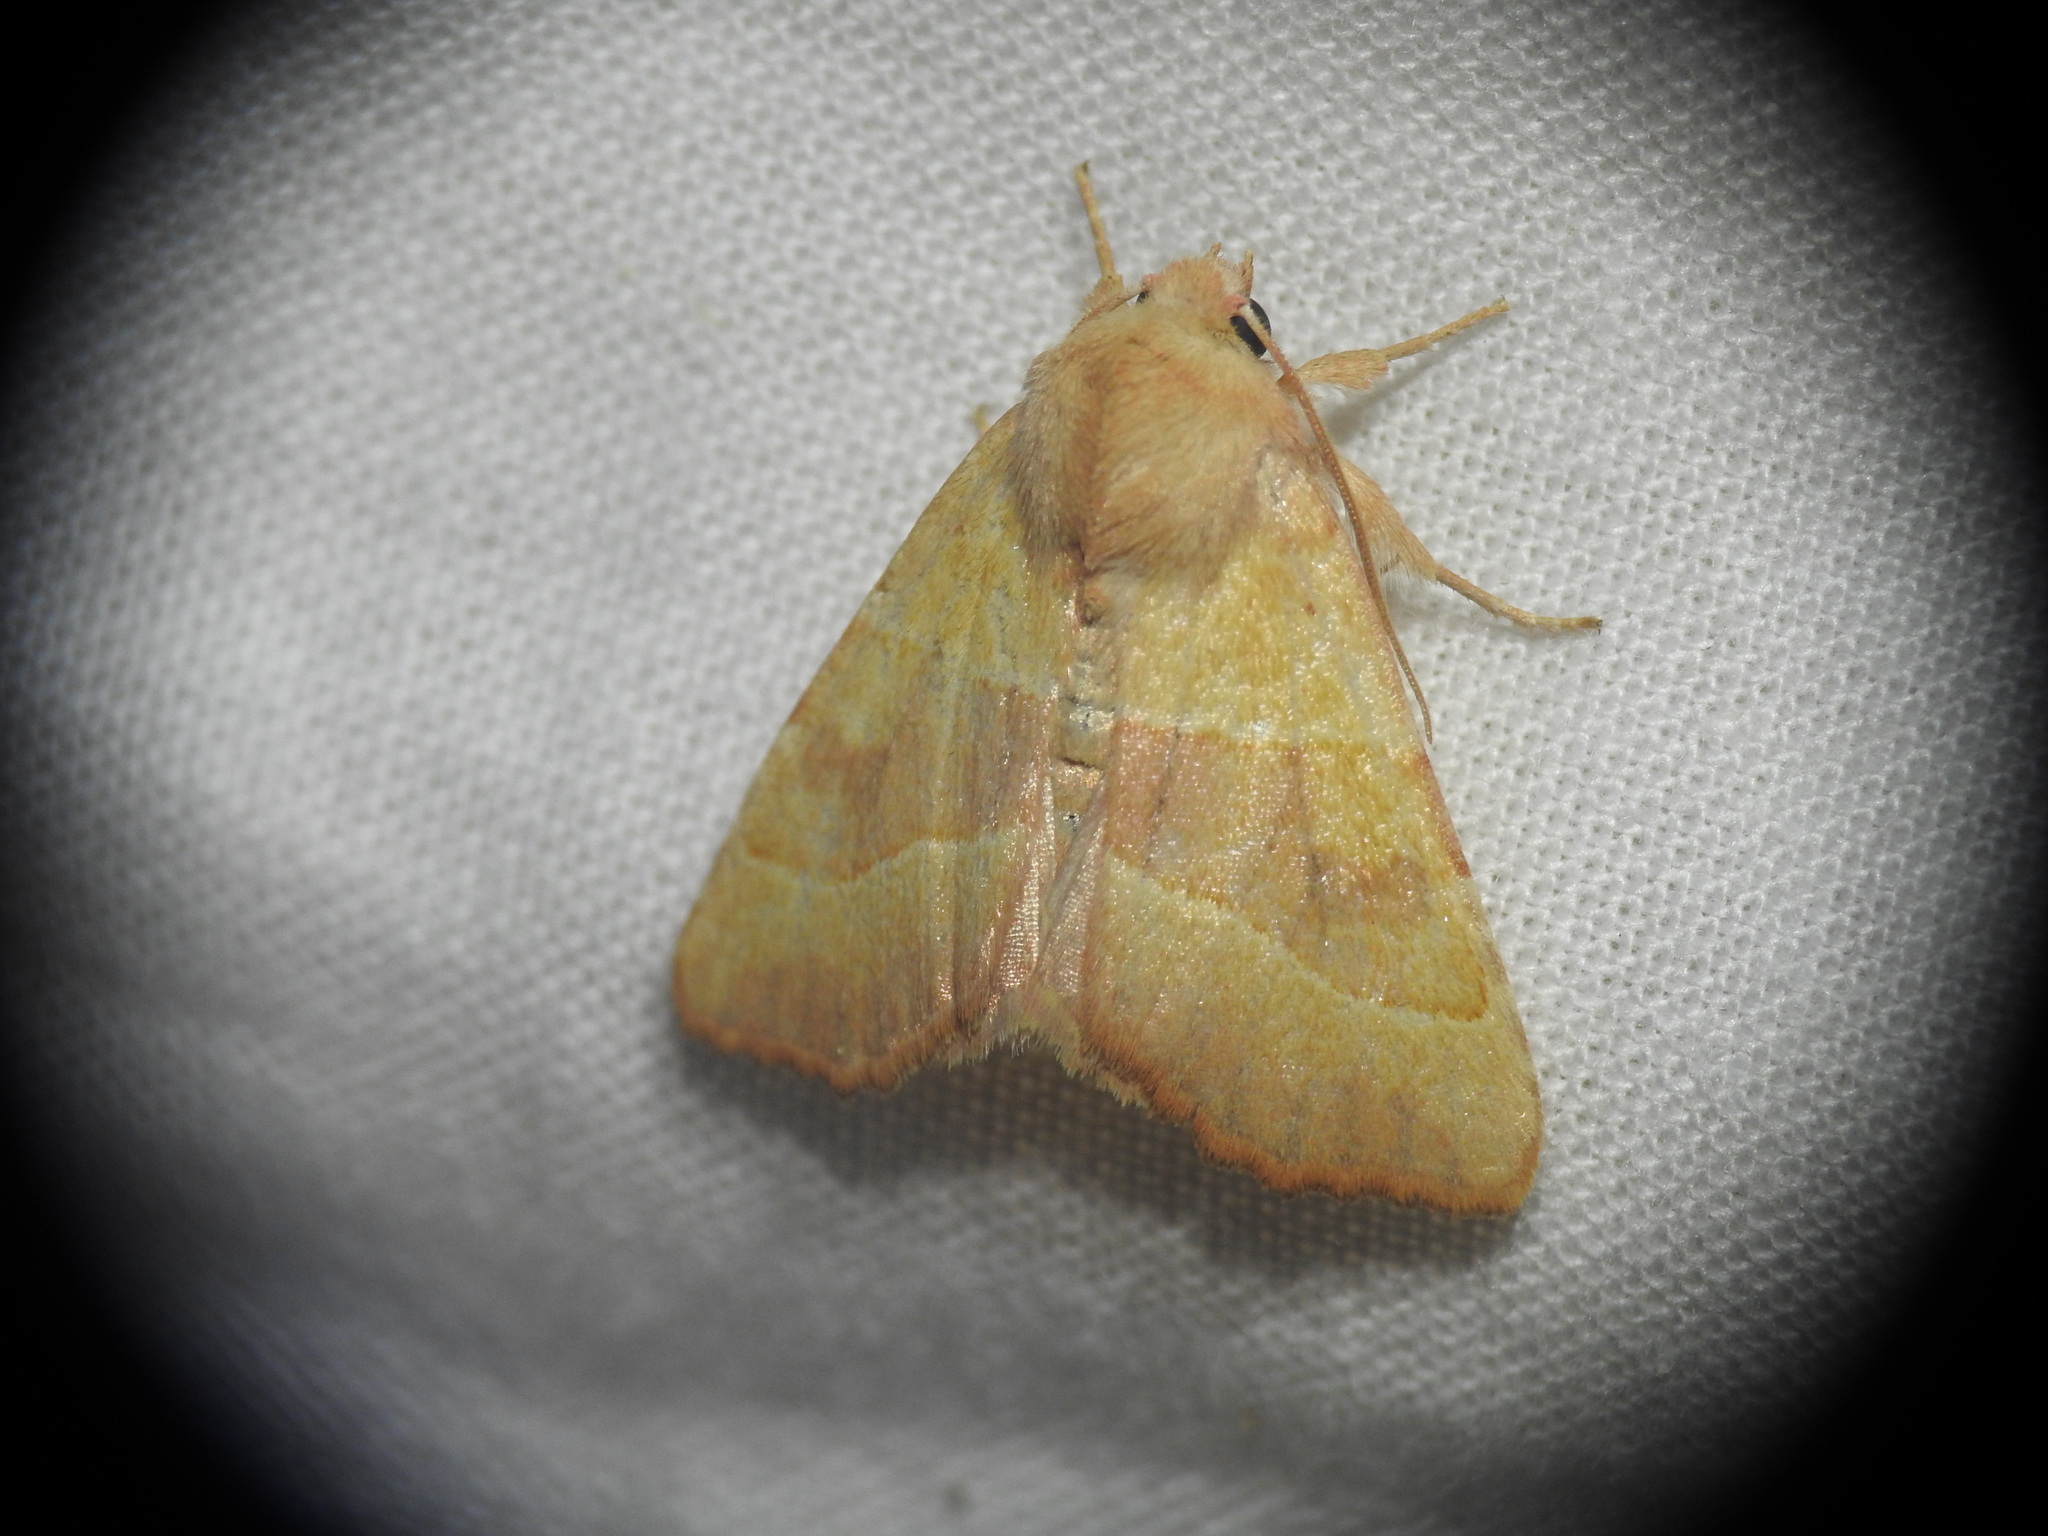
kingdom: Animalia
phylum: Arthropoda
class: Insecta
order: Lepidoptera
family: Noctuidae
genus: Atethmia
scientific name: Atethmia centrago
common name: Centre-barred sallow
